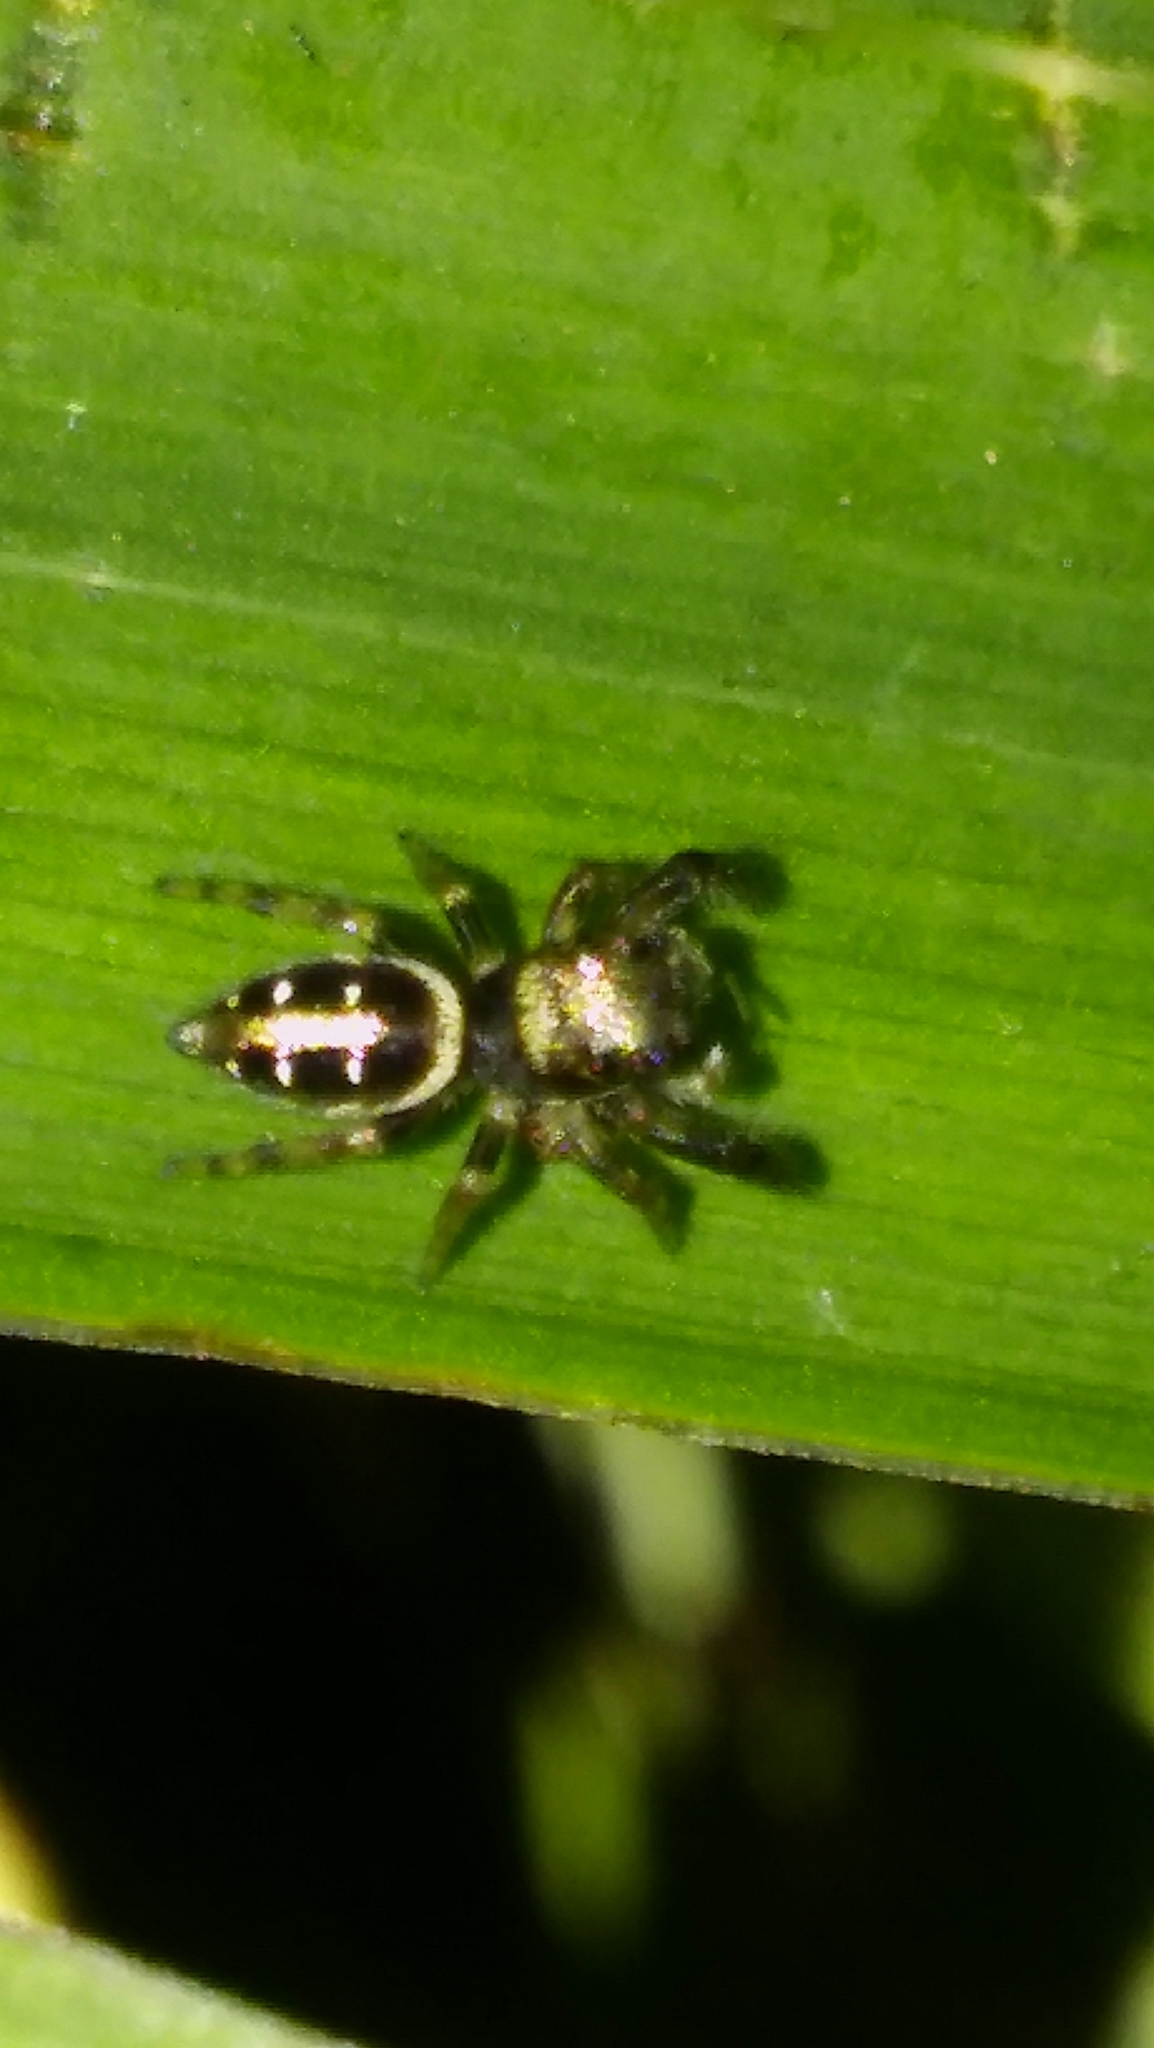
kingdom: Animalia
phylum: Arthropoda
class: Arachnida
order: Araneae
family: Salticidae
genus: Dendryphantes
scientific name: Dendryphantes mordax
